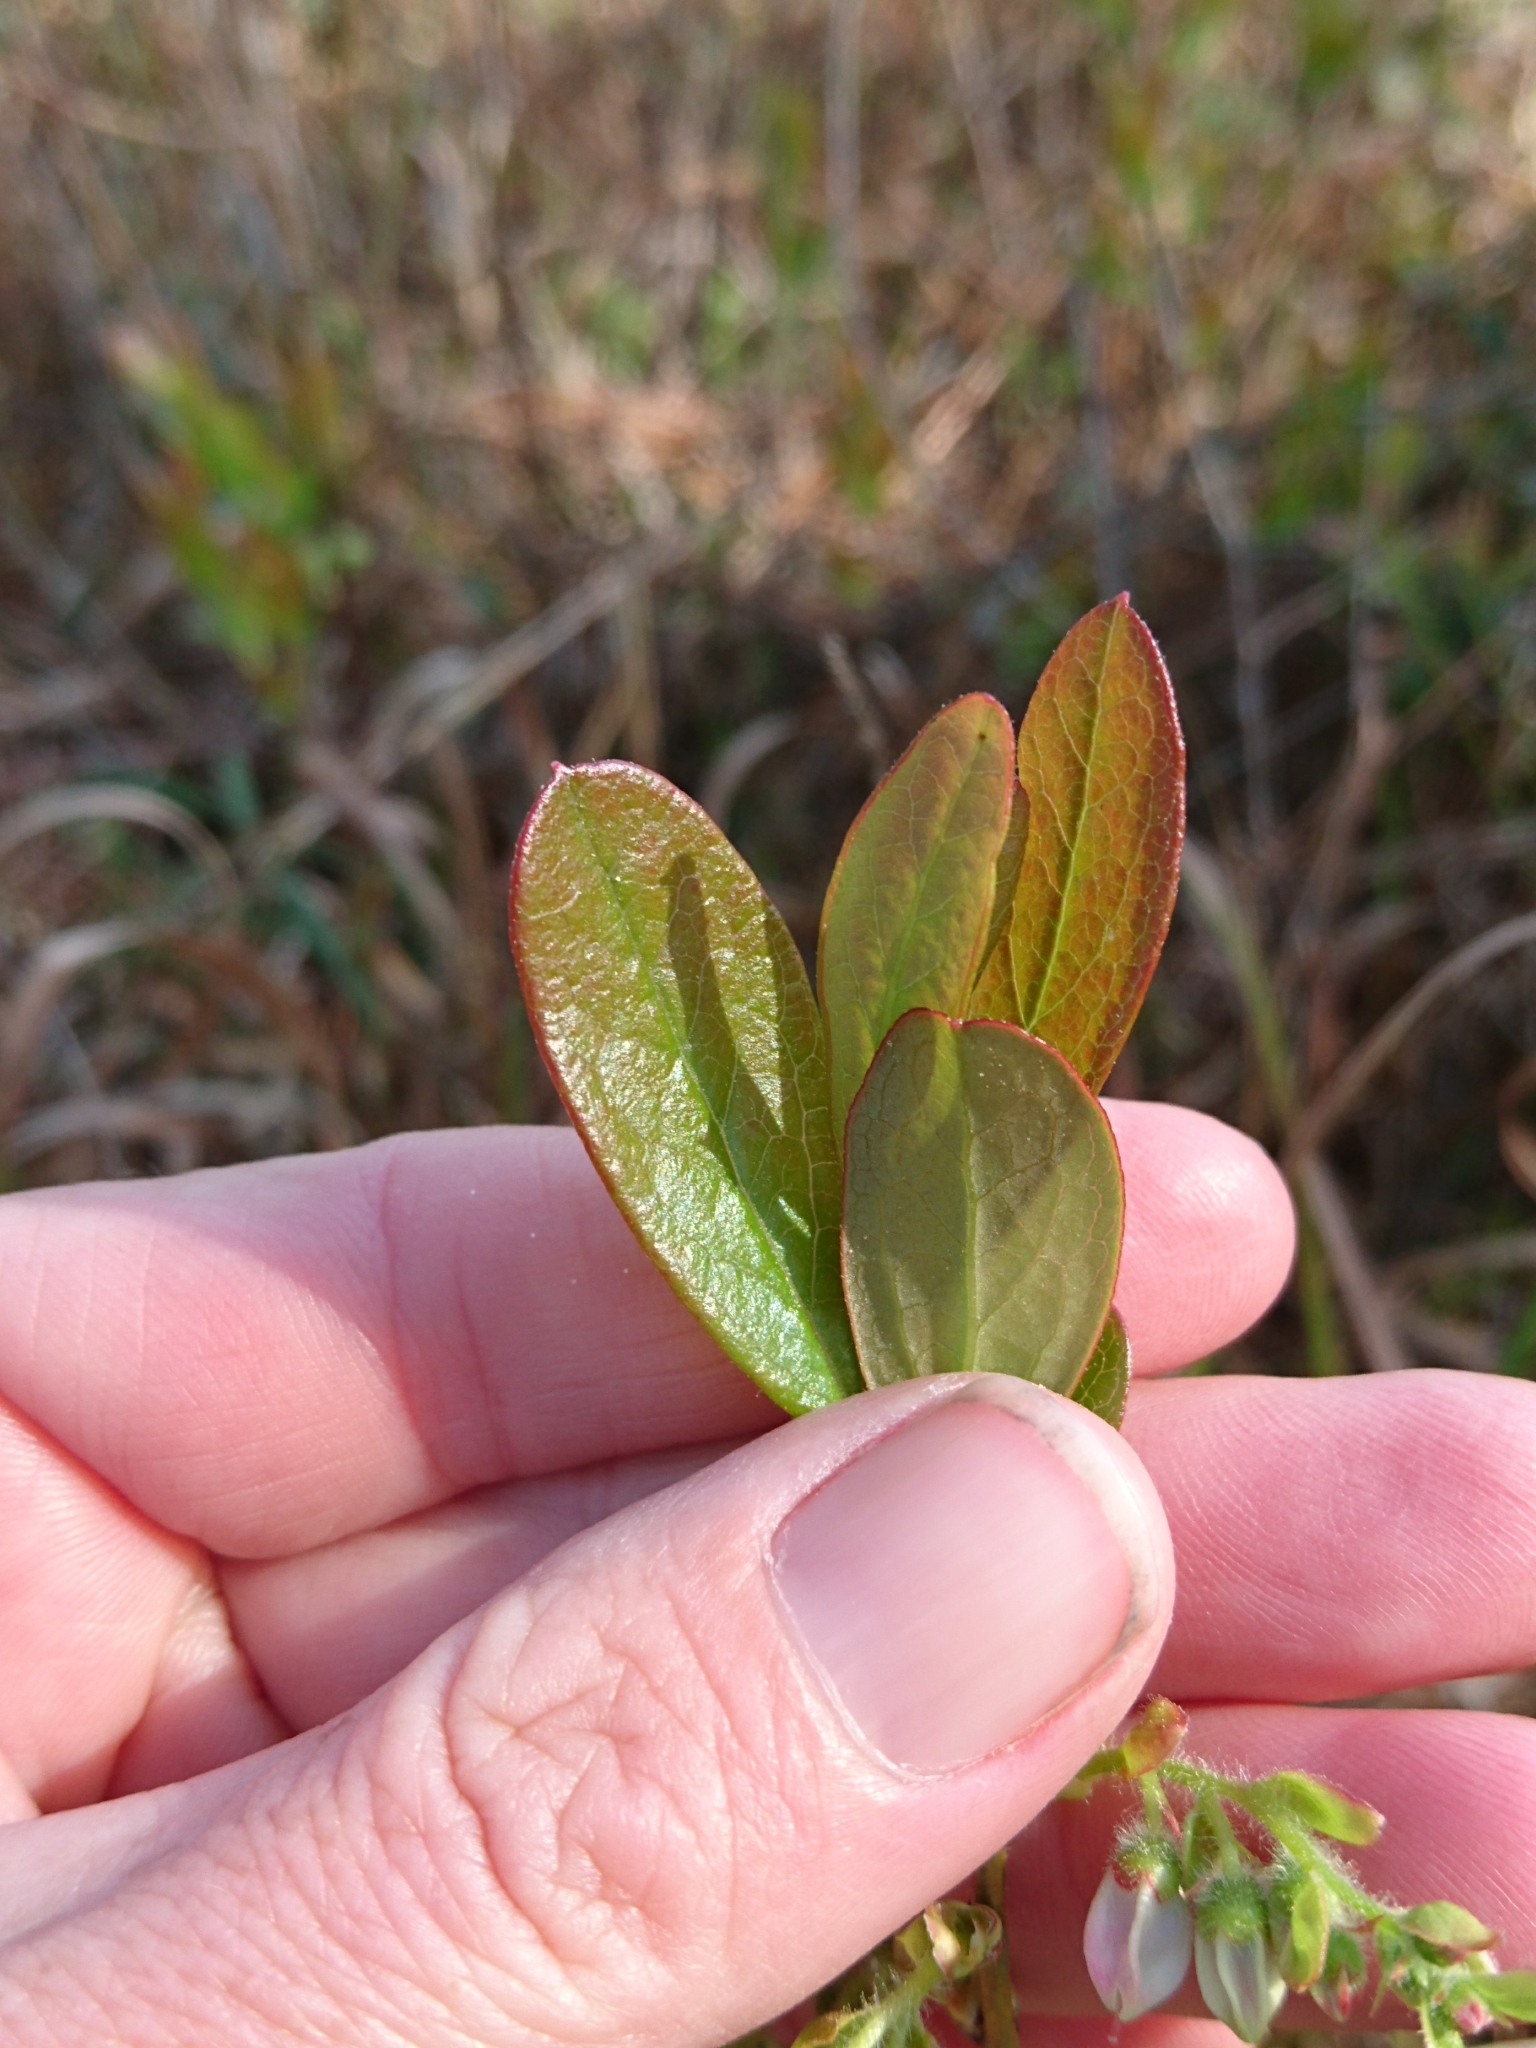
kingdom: Plantae
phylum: Tracheophyta
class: Magnoliopsida
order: Ericales
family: Ericaceae
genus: Gaylussacia
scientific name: Gaylussacia mosieri
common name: Hirsute huckleberry
